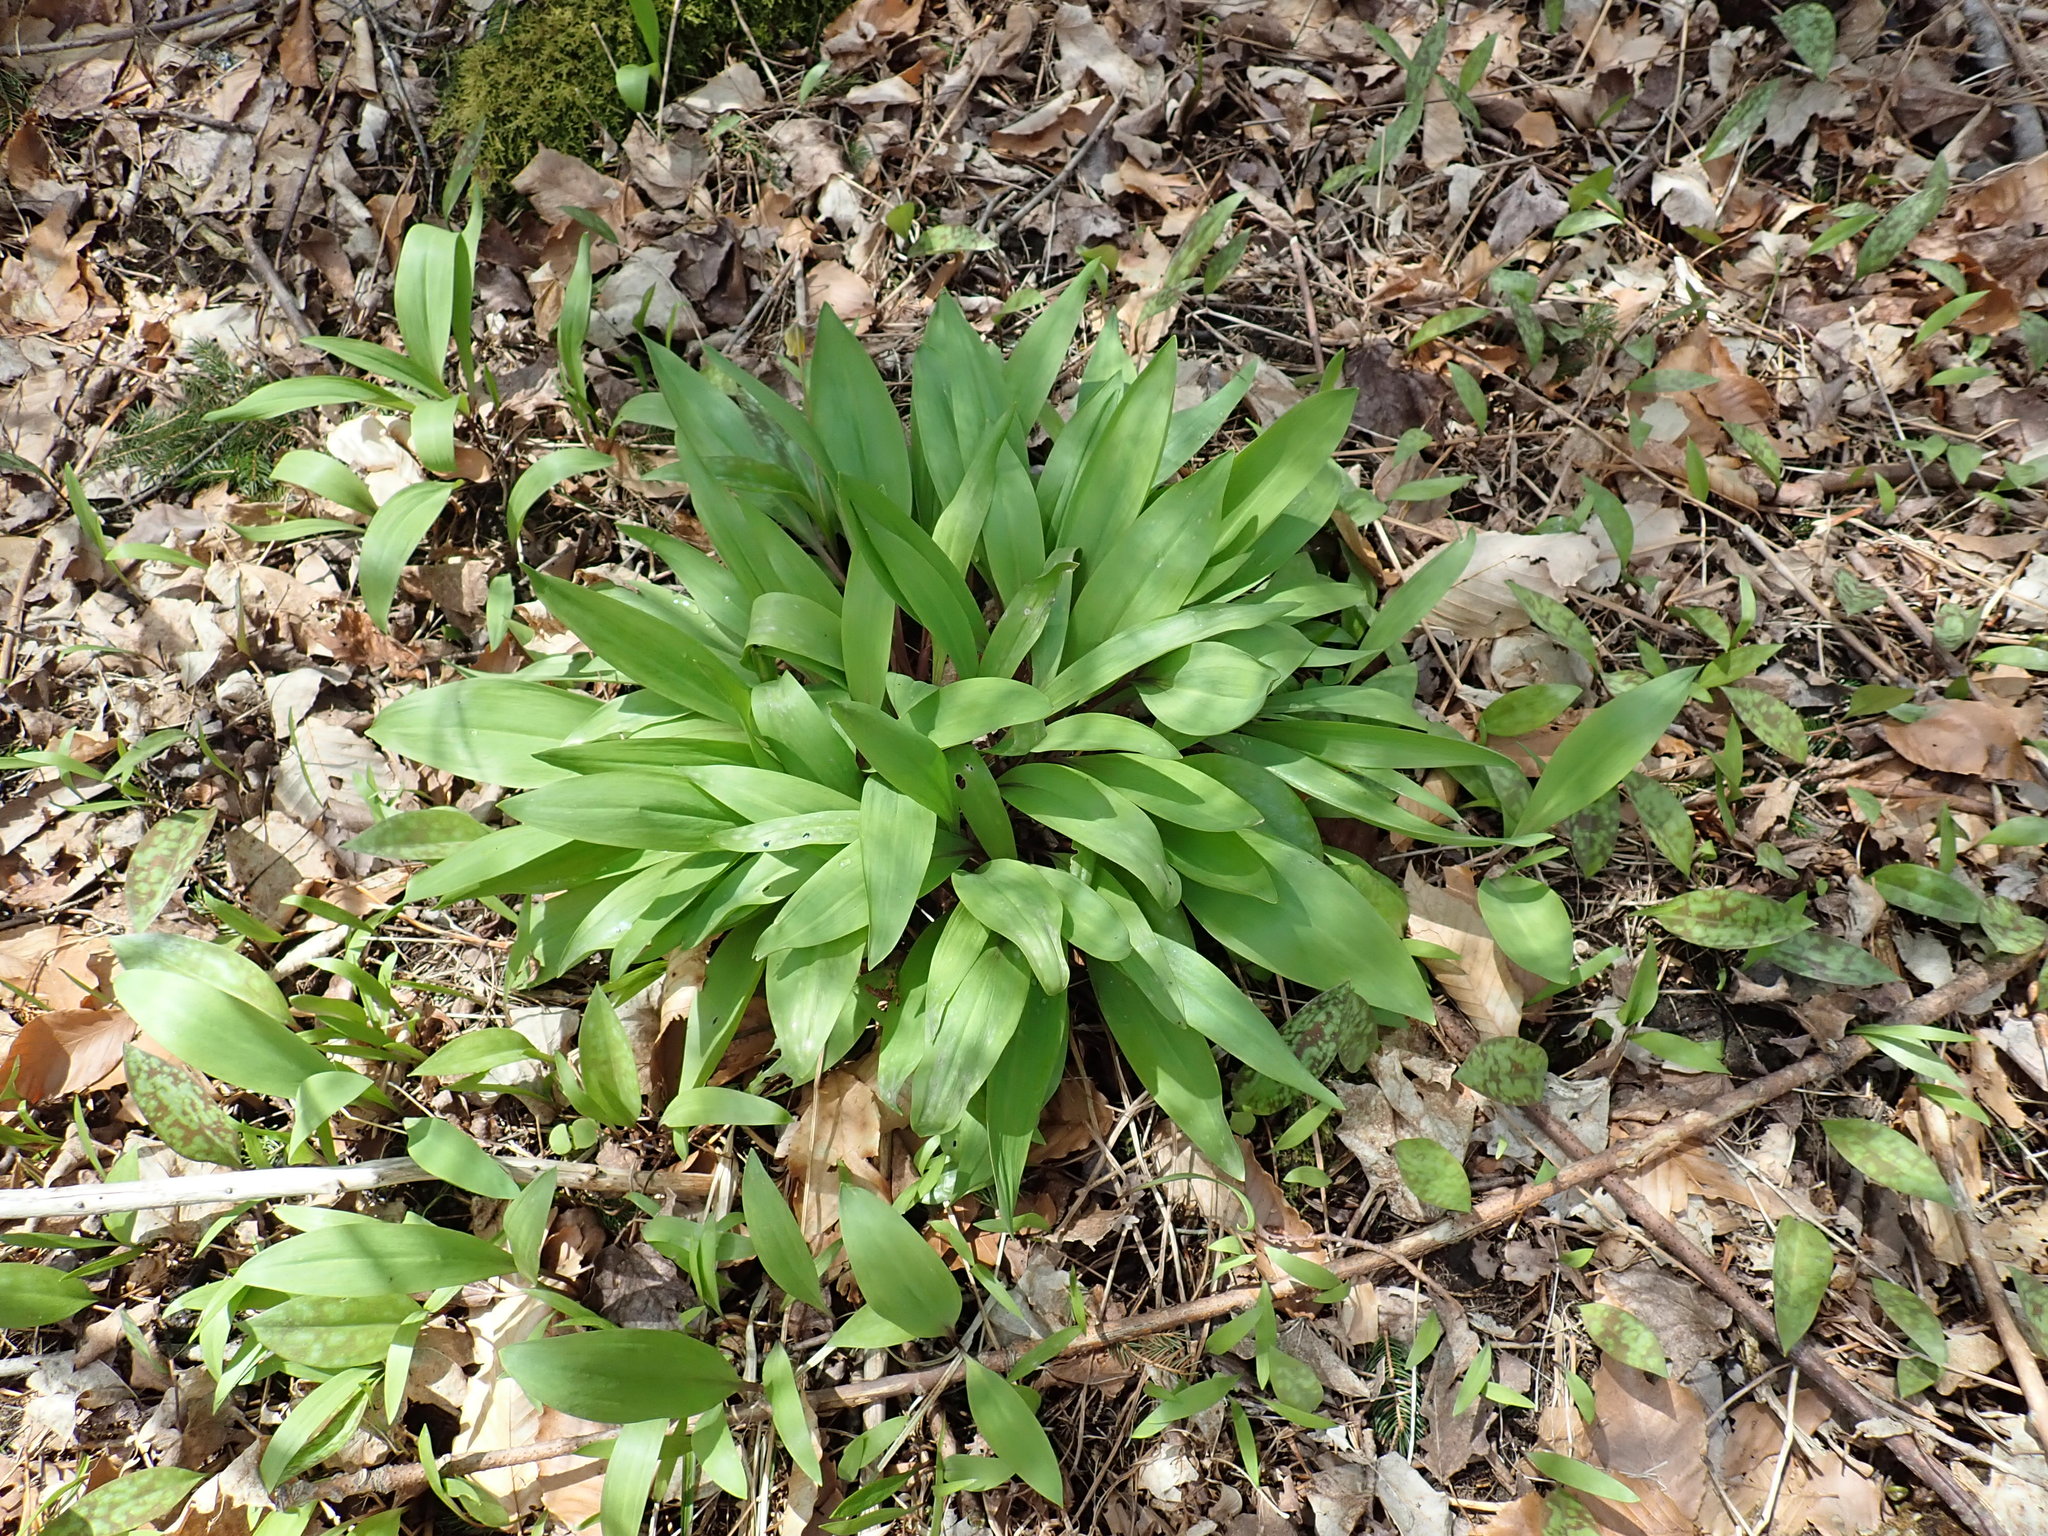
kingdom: Plantae
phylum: Tracheophyta
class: Liliopsida
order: Asparagales
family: Amaryllidaceae
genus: Allium
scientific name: Allium tricoccum
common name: Ramp
